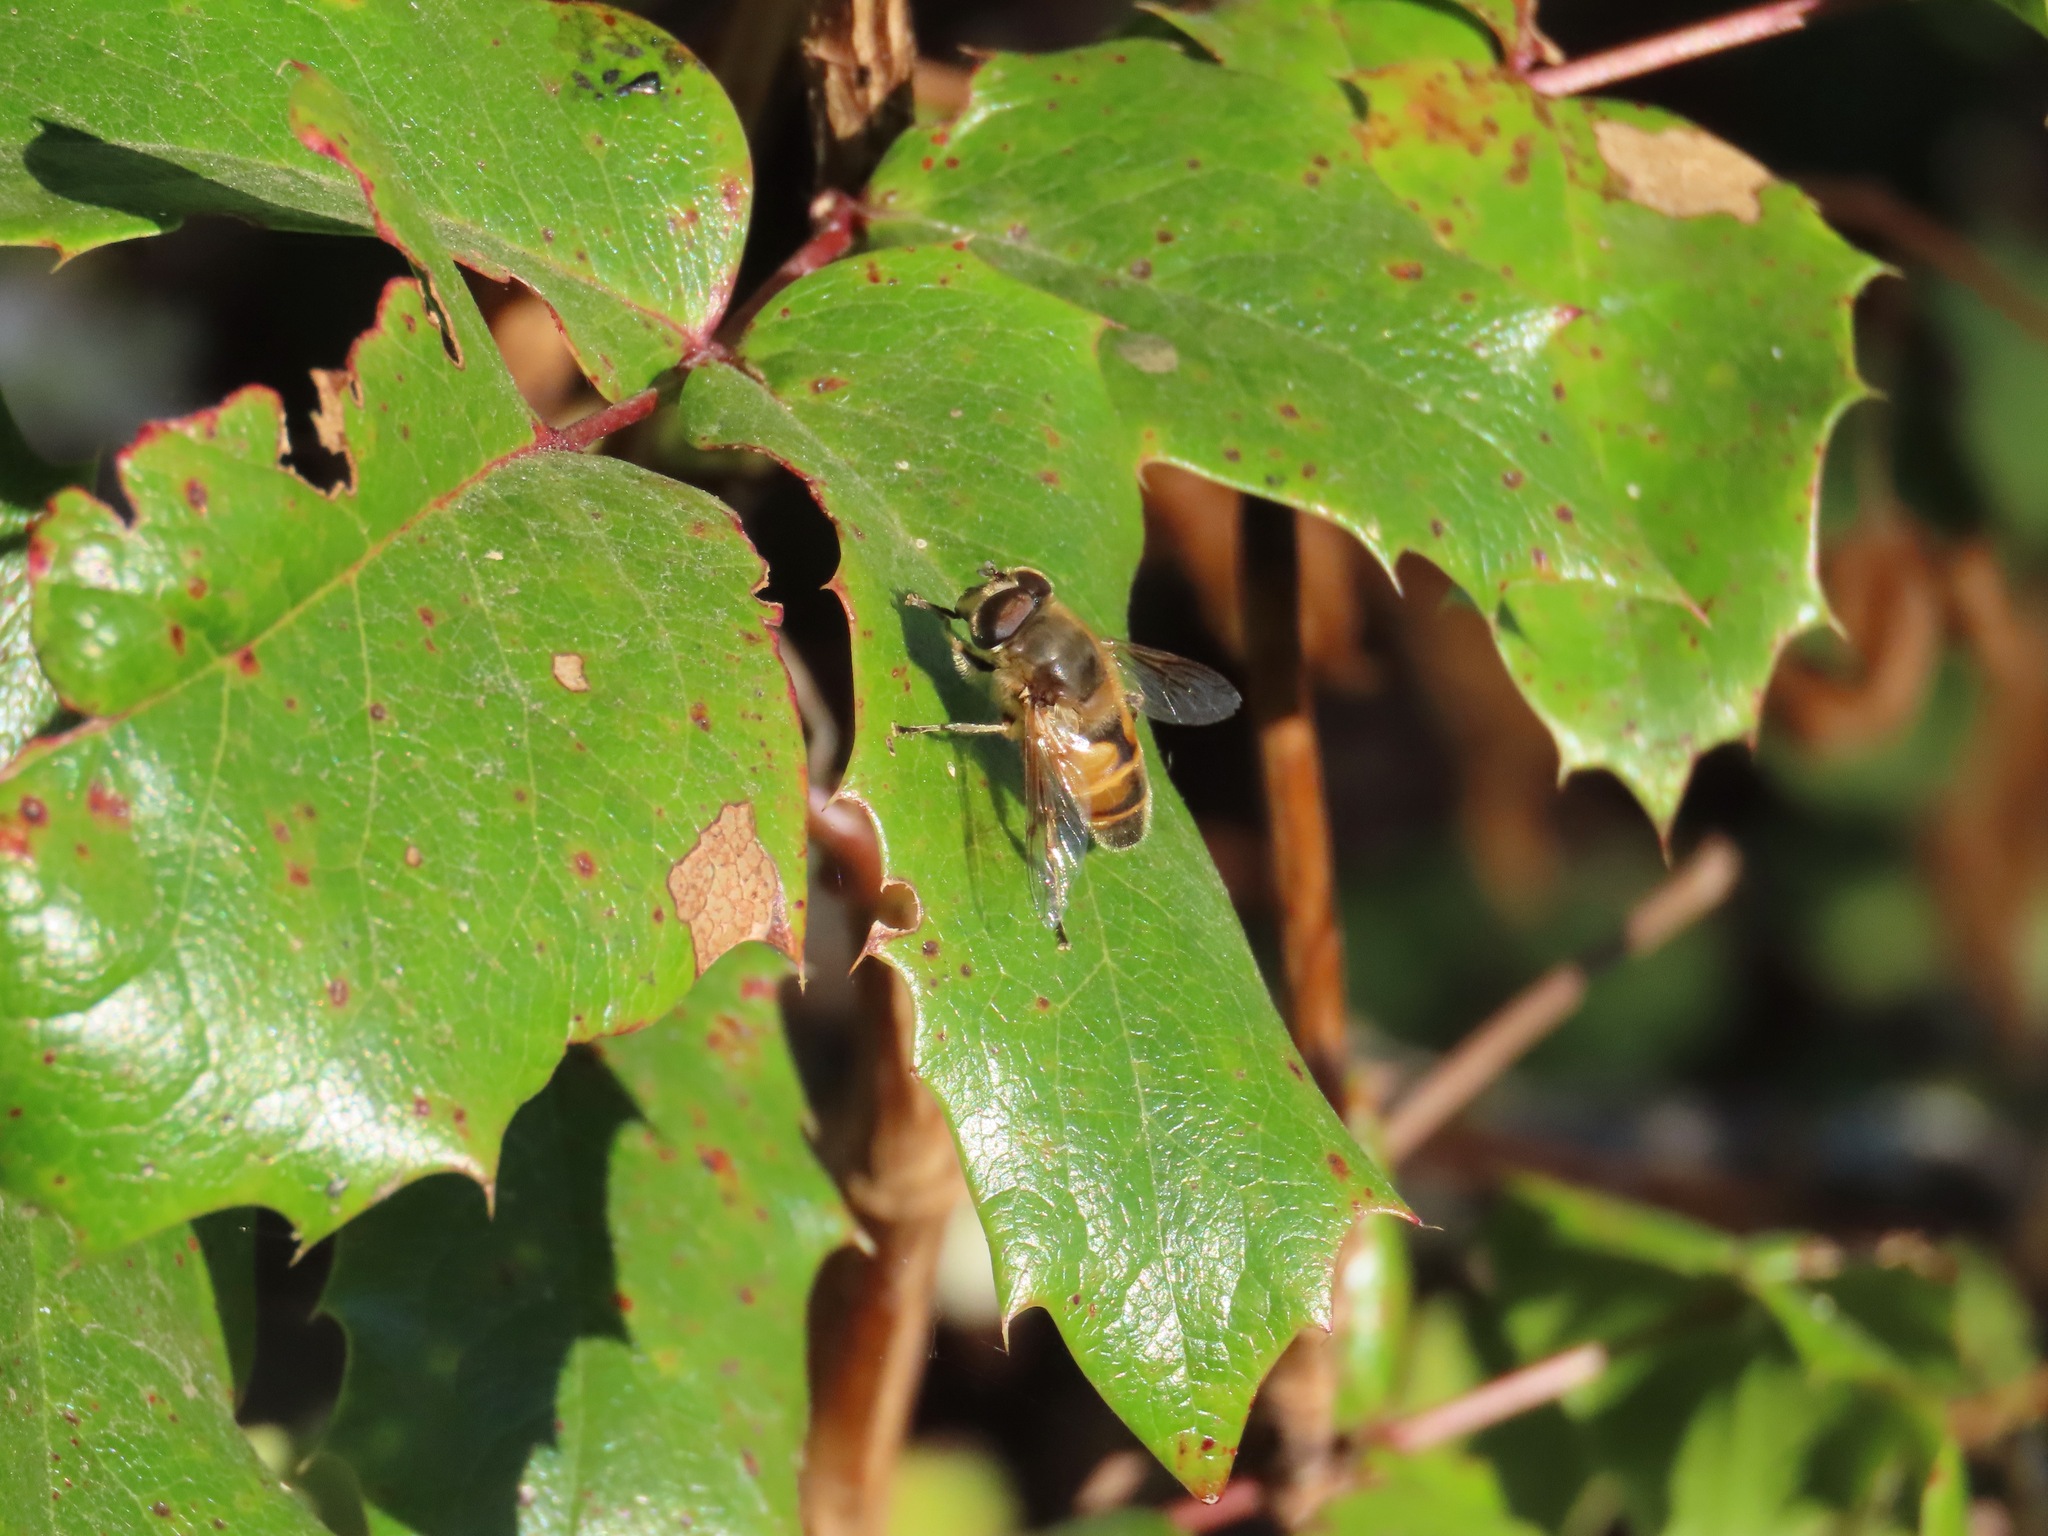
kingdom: Animalia
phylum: Arthropoda
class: Insecta
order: Diptera
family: Syrphidae
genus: Eristalis
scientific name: Eristalis tenax
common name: Drone fly
